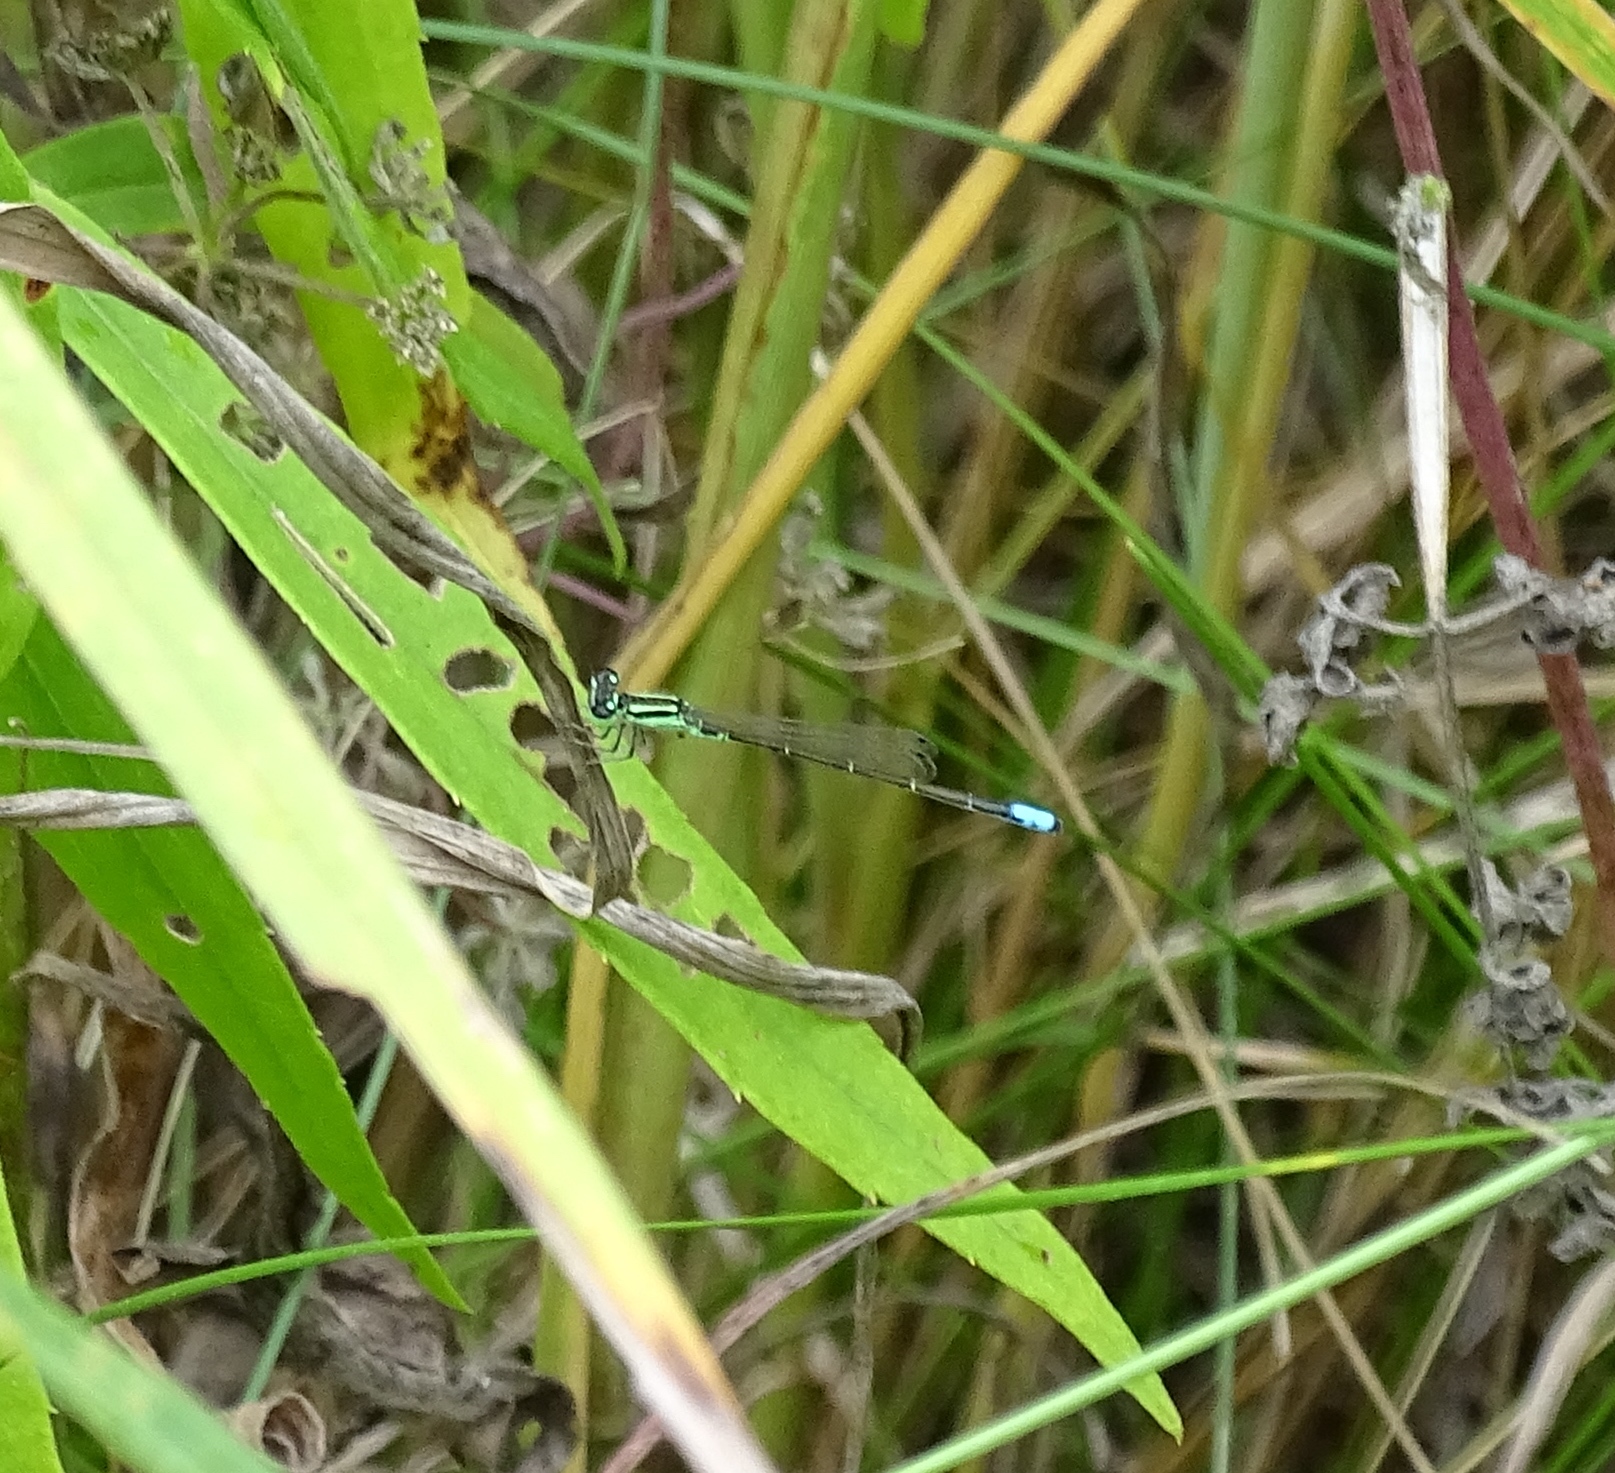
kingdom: Animalia
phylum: Arthropoda
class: Insecta
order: Odonata
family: Coenagrionidae
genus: Ischnura
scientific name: Ischnura verticalis
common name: Eastern forktail
